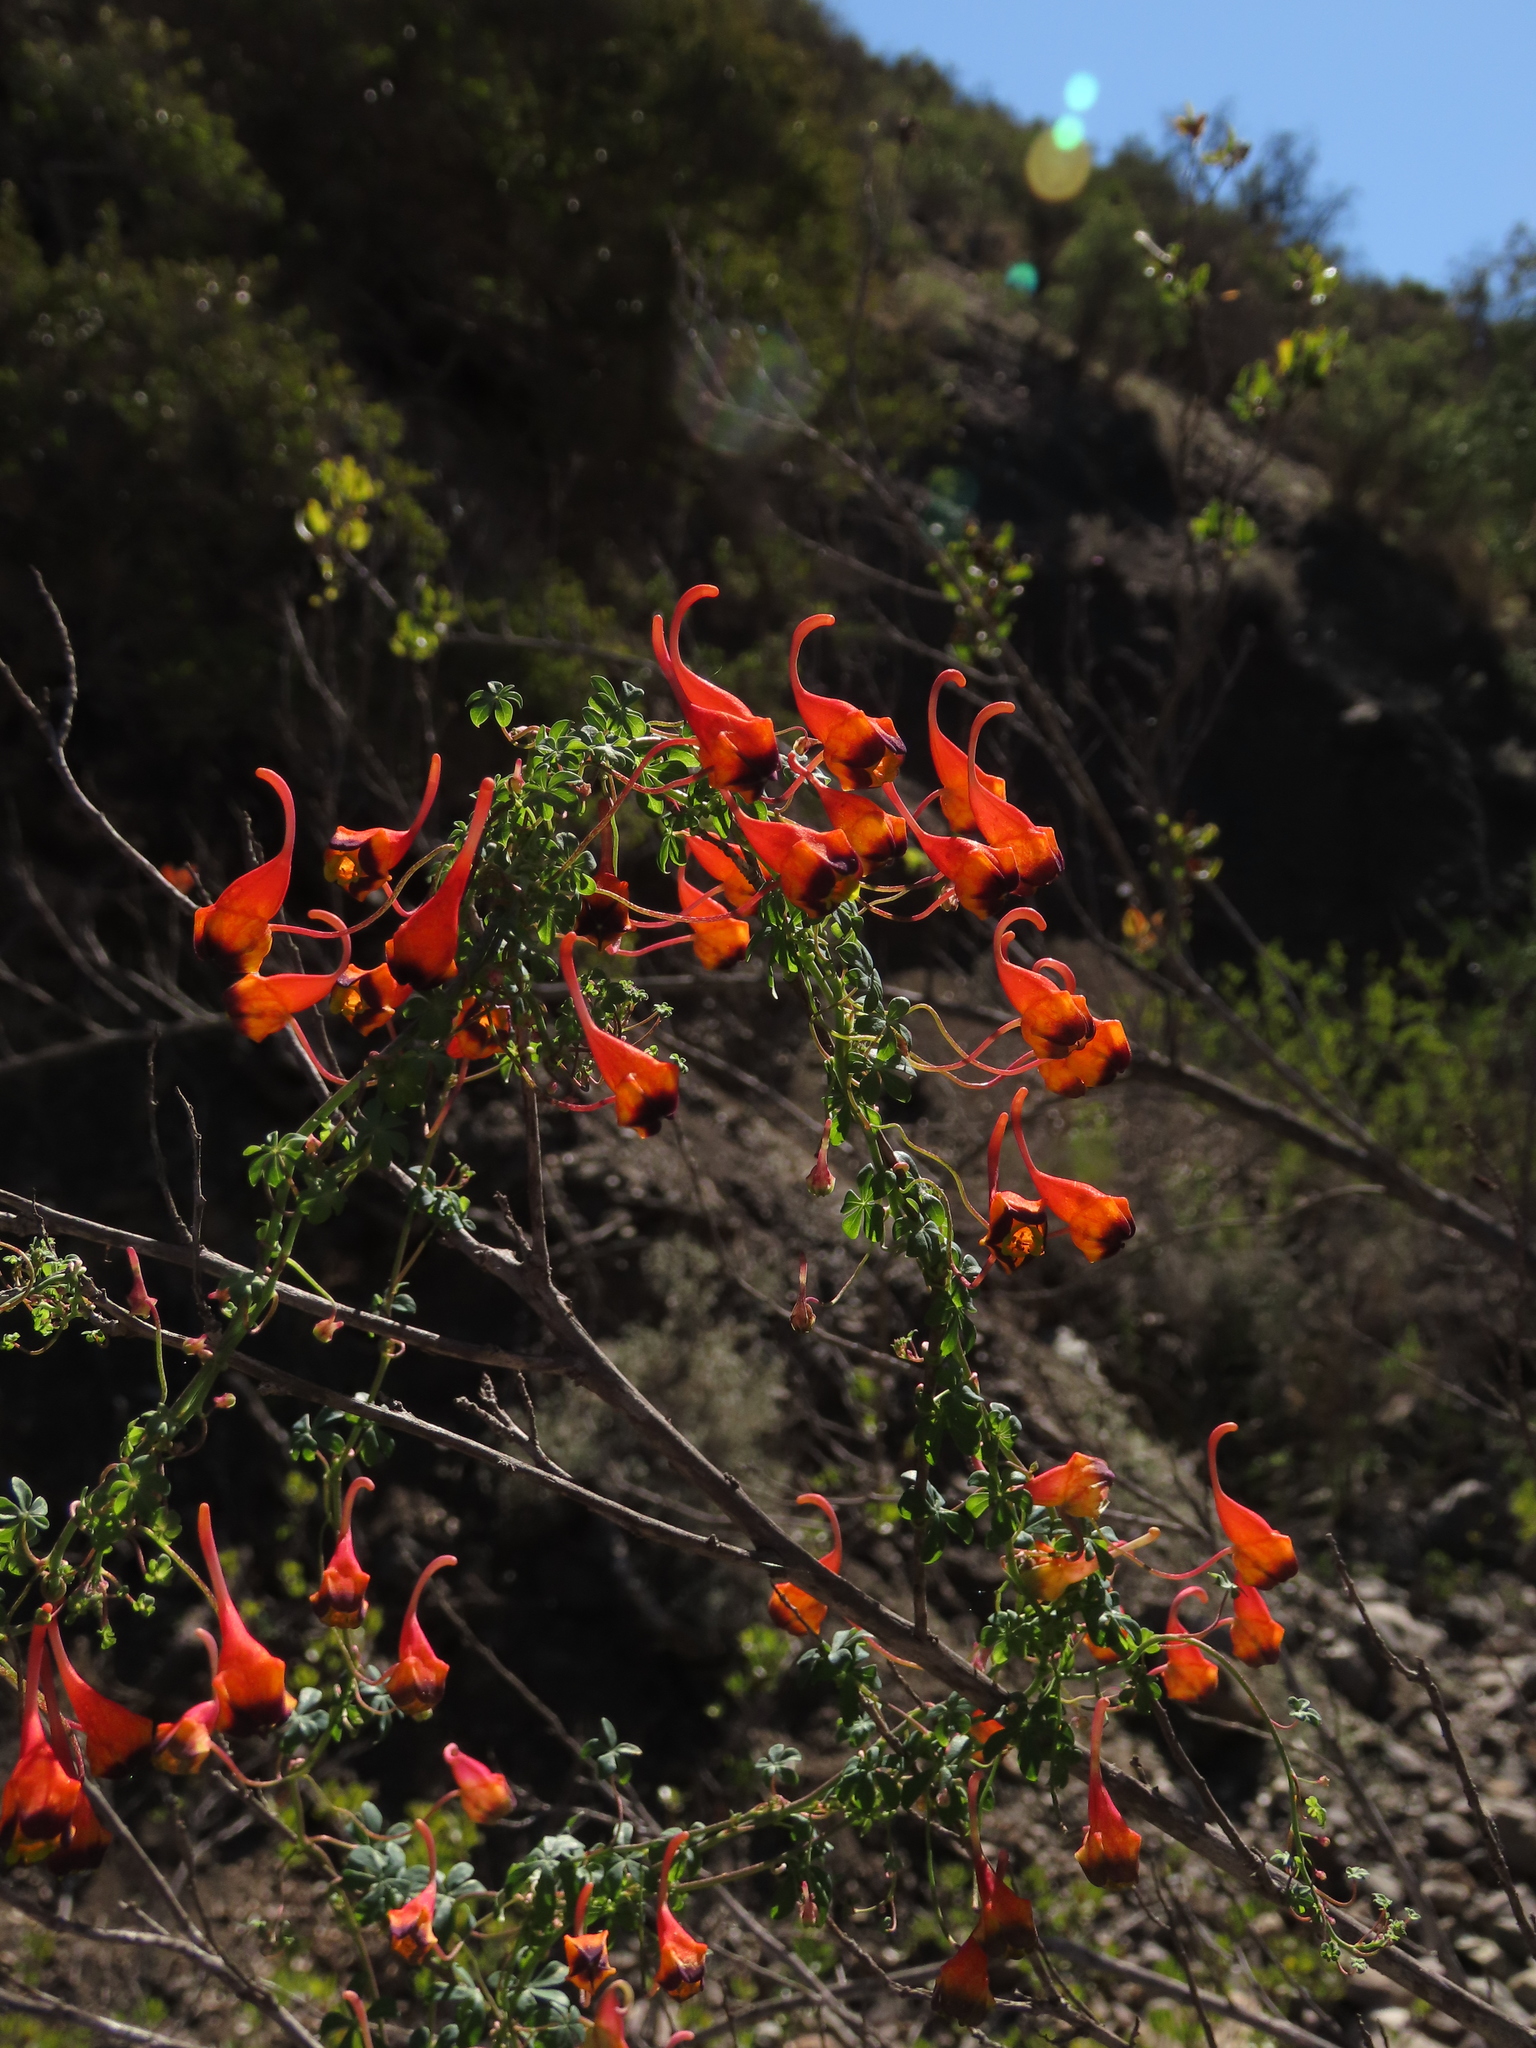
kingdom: Plantae
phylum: Tracheophyta
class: Magnoliopsida
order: Brassicales
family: Tropaeolaceae
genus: Tropaeolum
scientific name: Tropaeolum tricolor
